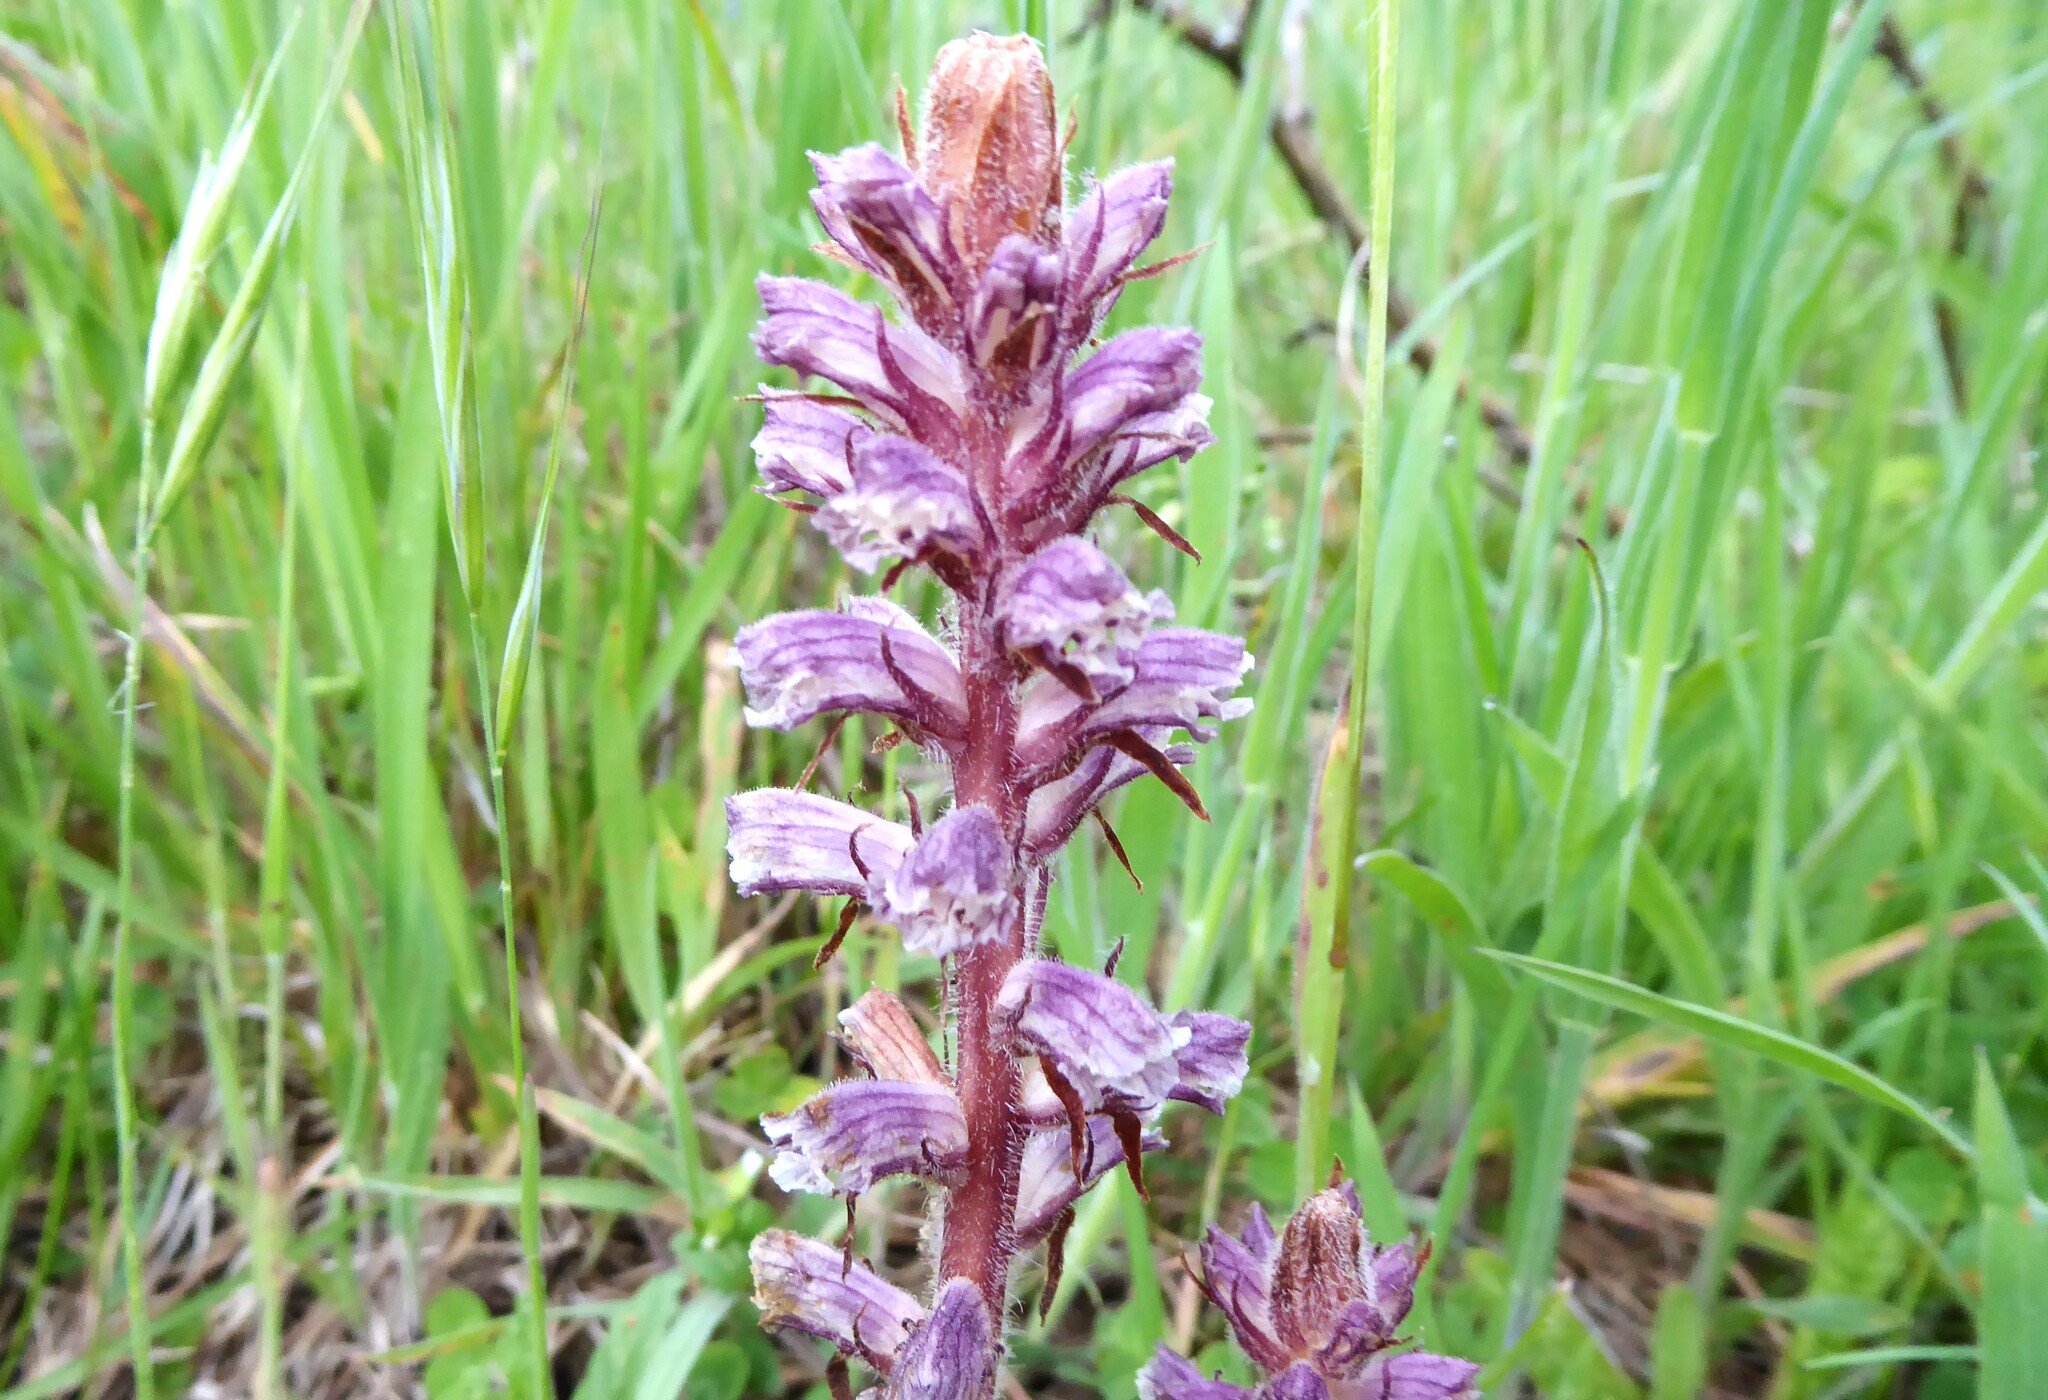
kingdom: Plantae
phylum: Tracheophyta
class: Magnoliopsida
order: Lamiales
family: Orobanchaceae
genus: Orobanche
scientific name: Orobanche minor
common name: Common broomrape
